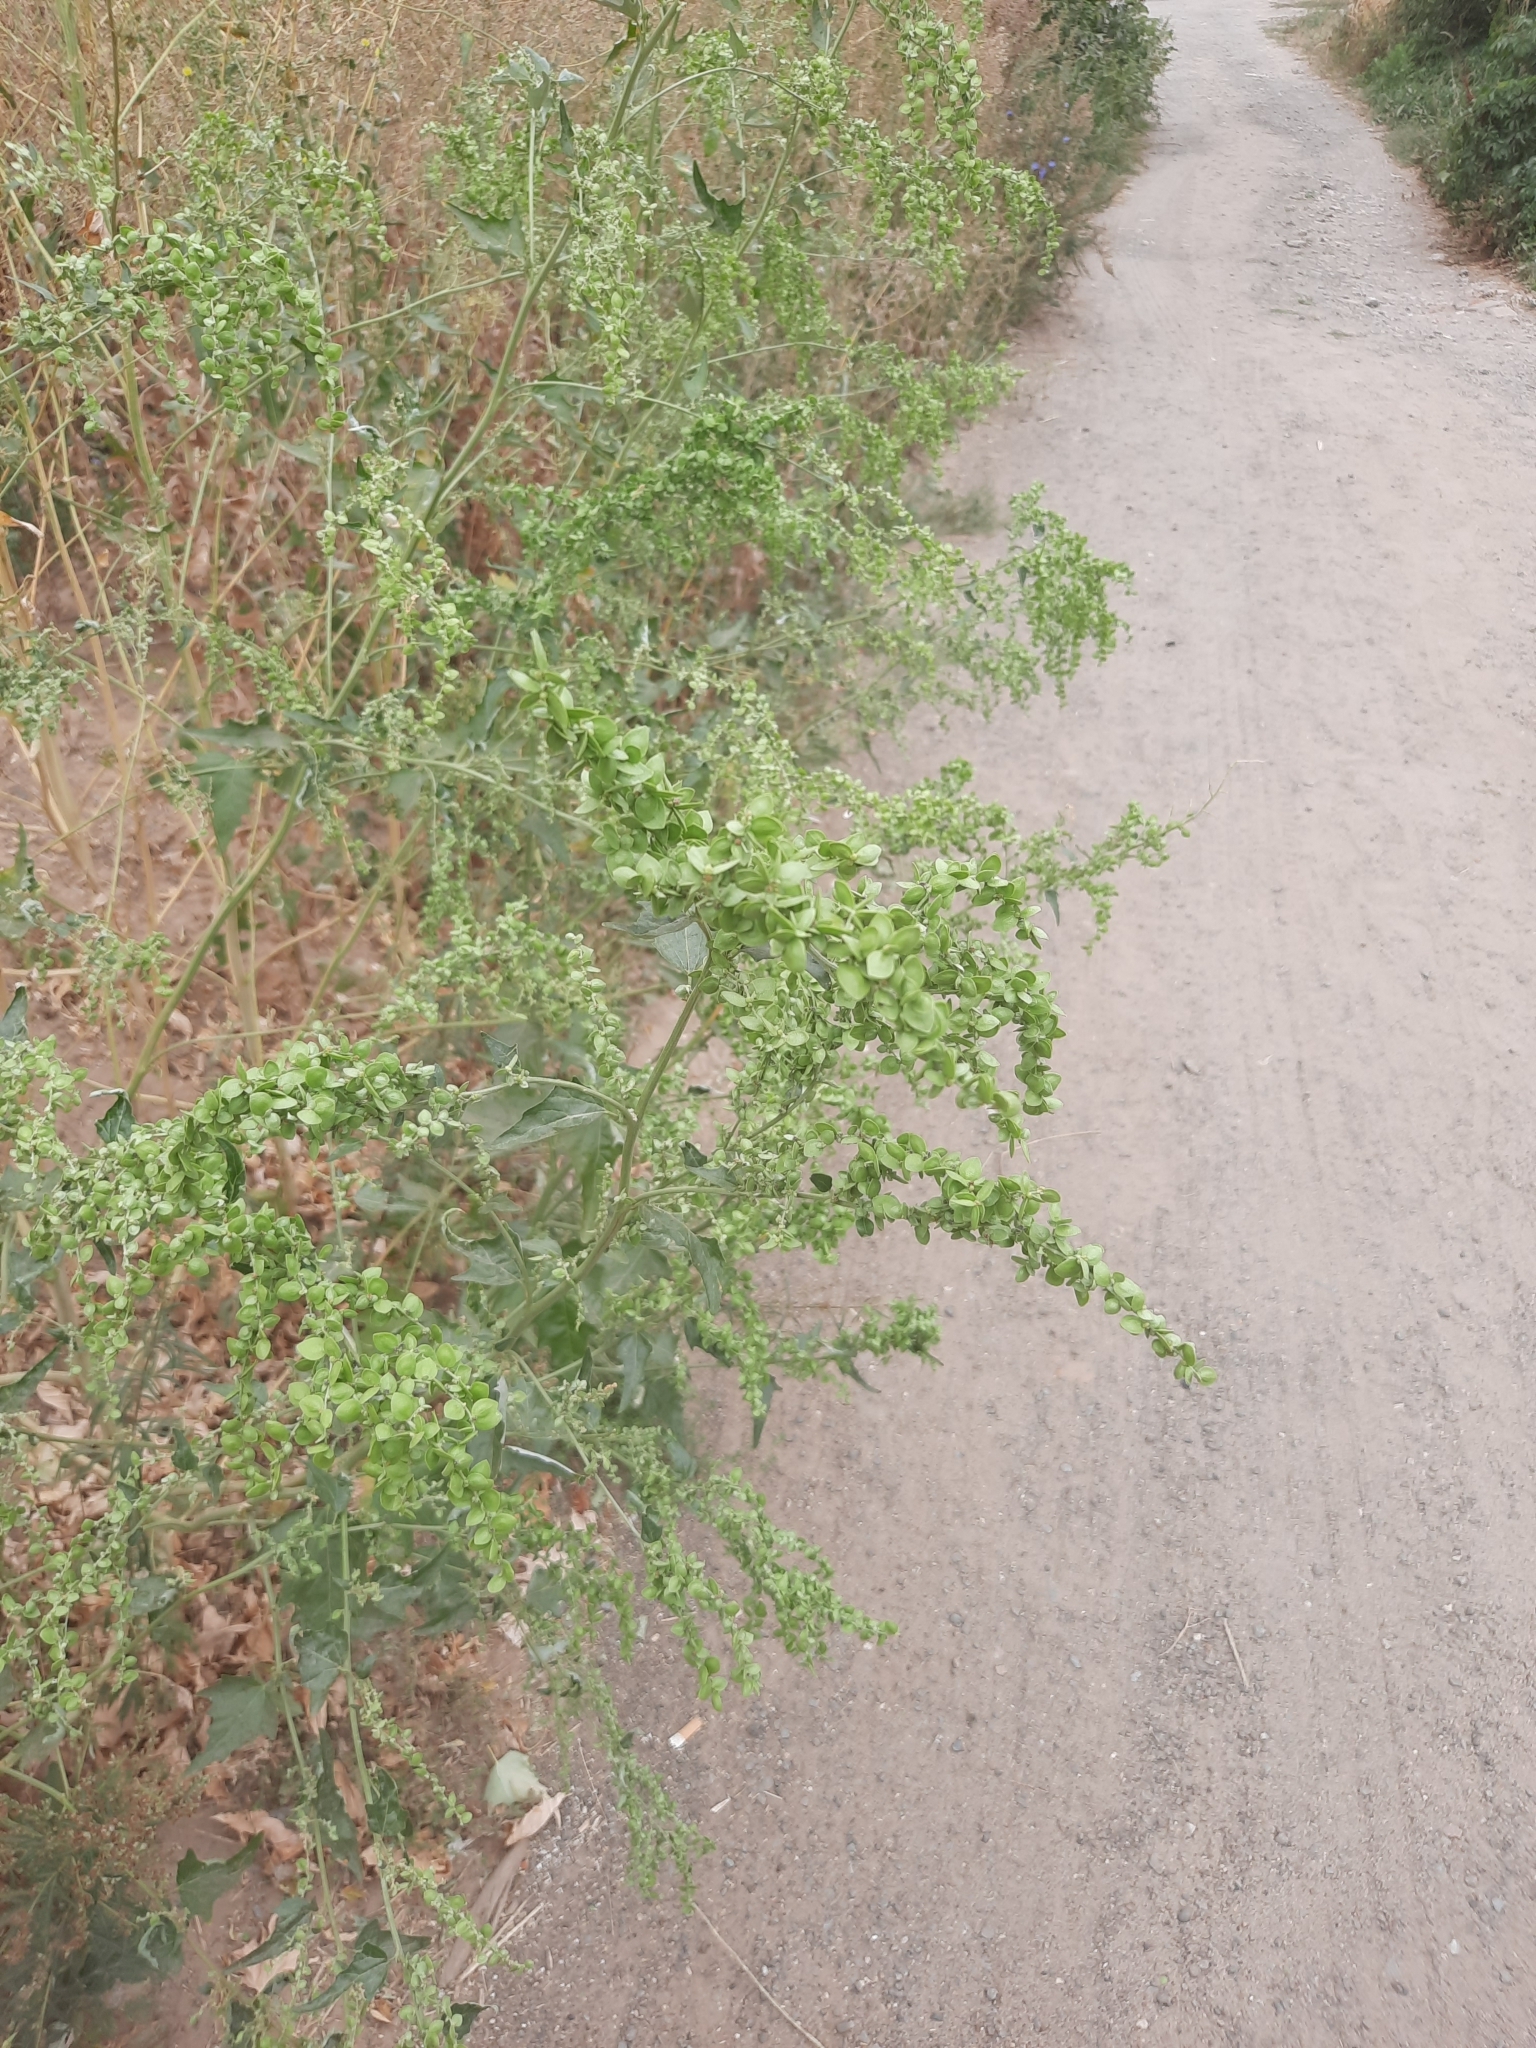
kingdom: Plantae
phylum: Tracheophyta
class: Magnoliopsida
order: Caryophyllales
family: Amaranthaceae
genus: Atriplex
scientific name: Atriplex sagittata
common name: Purple orache
